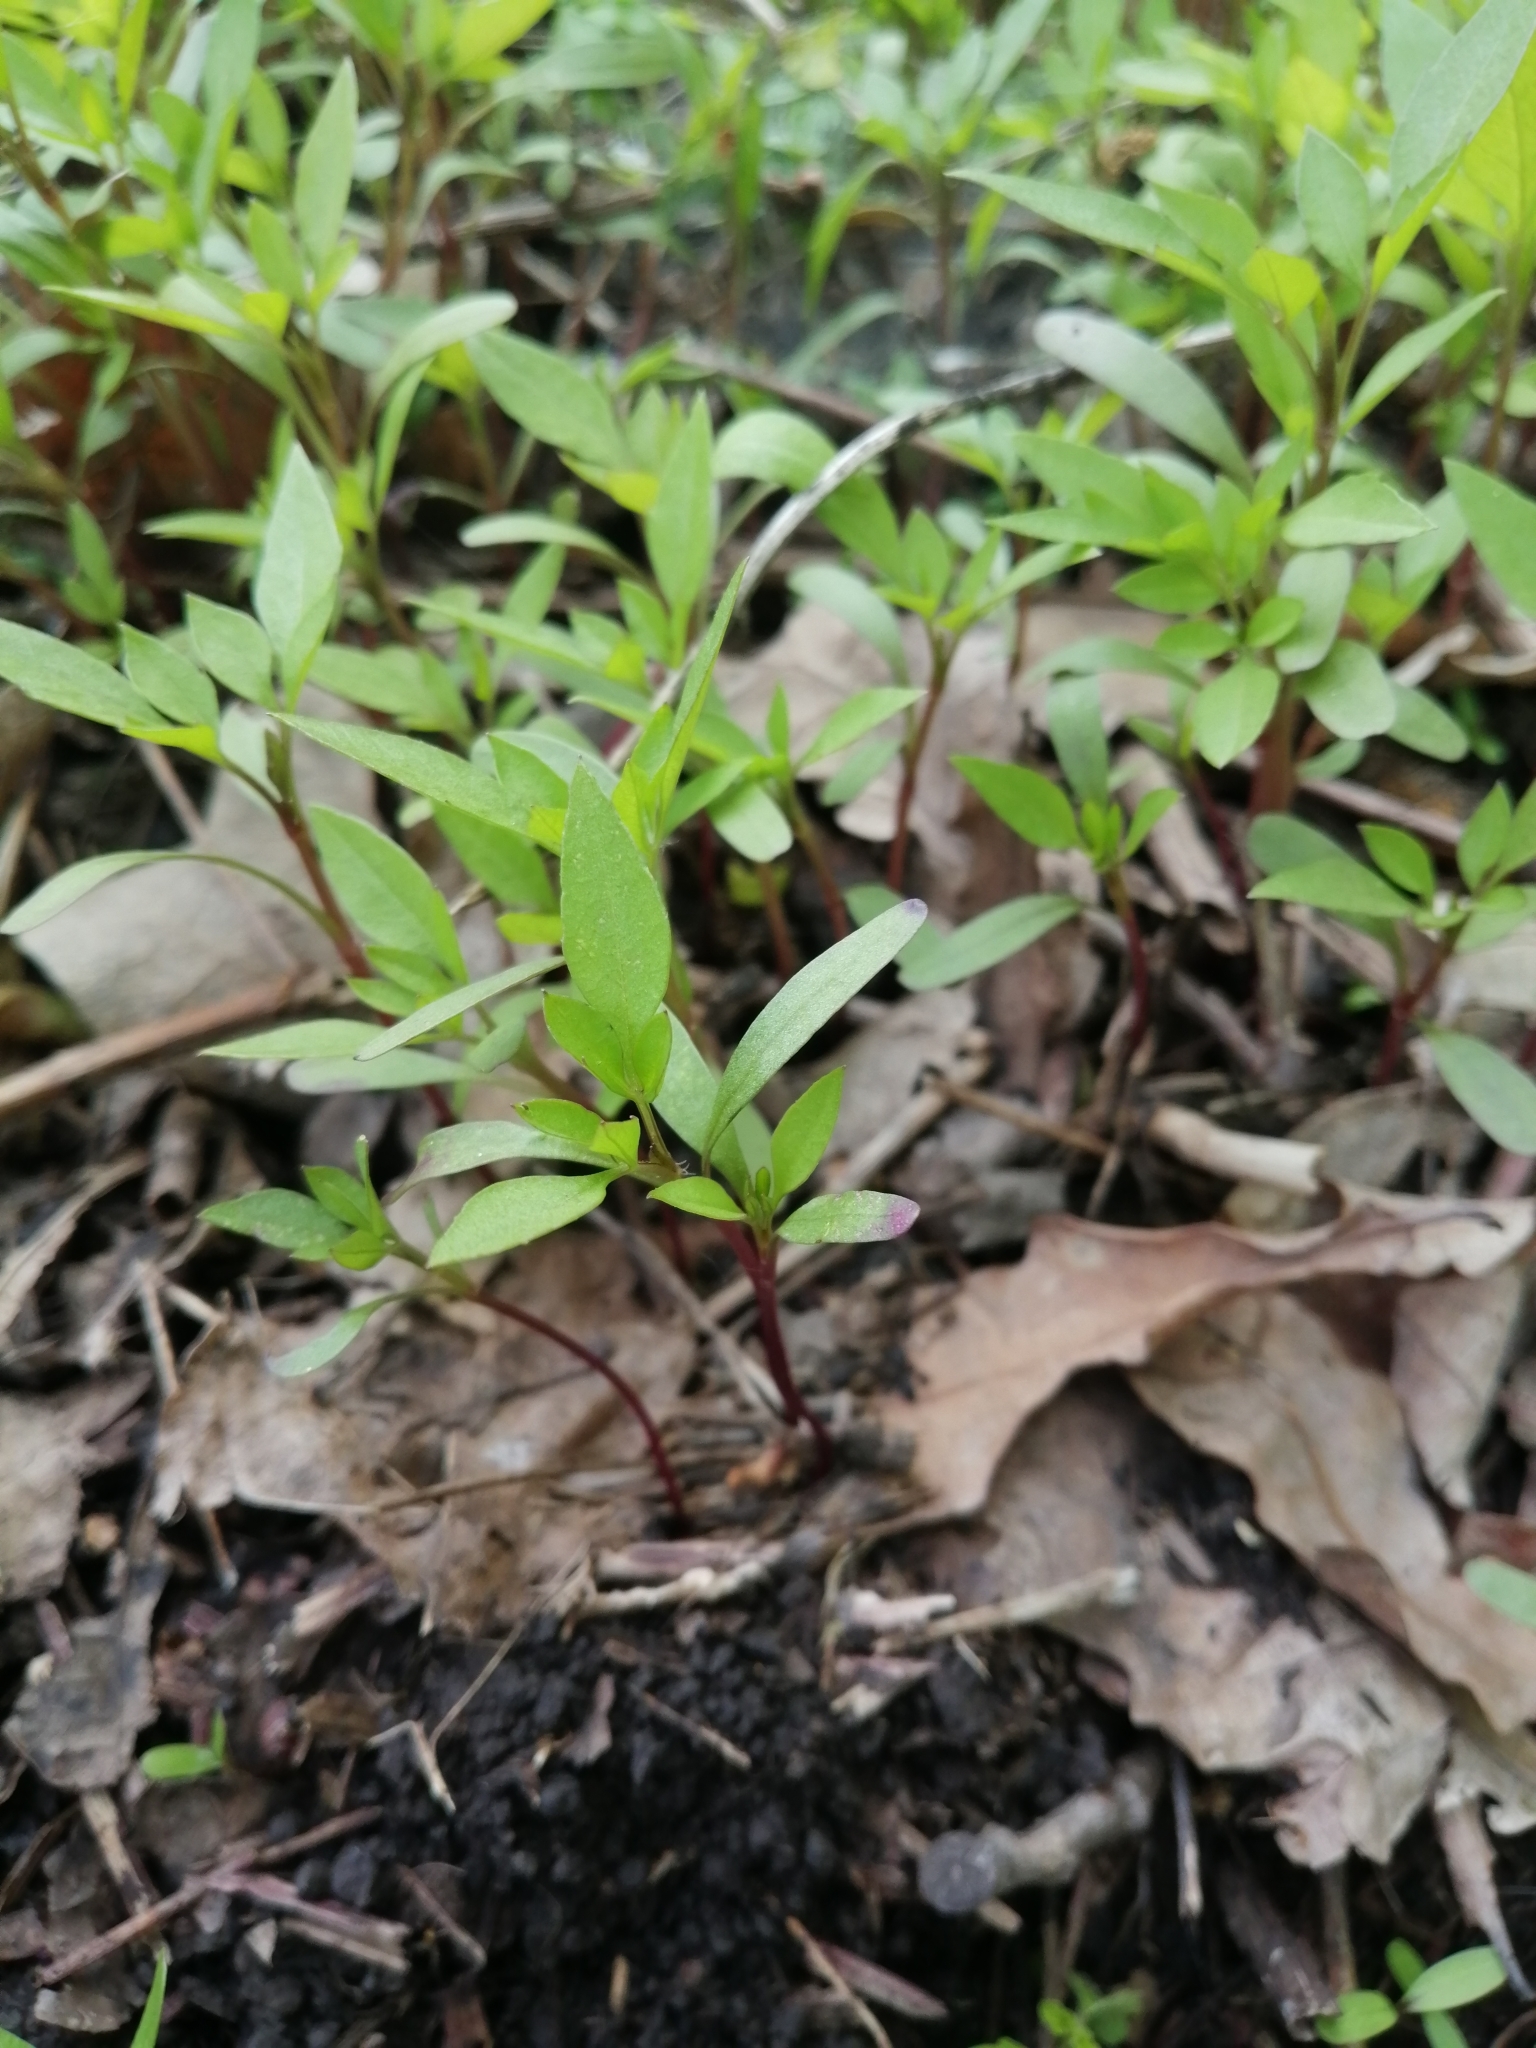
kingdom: Plantae
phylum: Tracheophyta
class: Magnoliopsida
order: Asterales
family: Asteraceae
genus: Bidens
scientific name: Bidens frondosa
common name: Beggarticks
